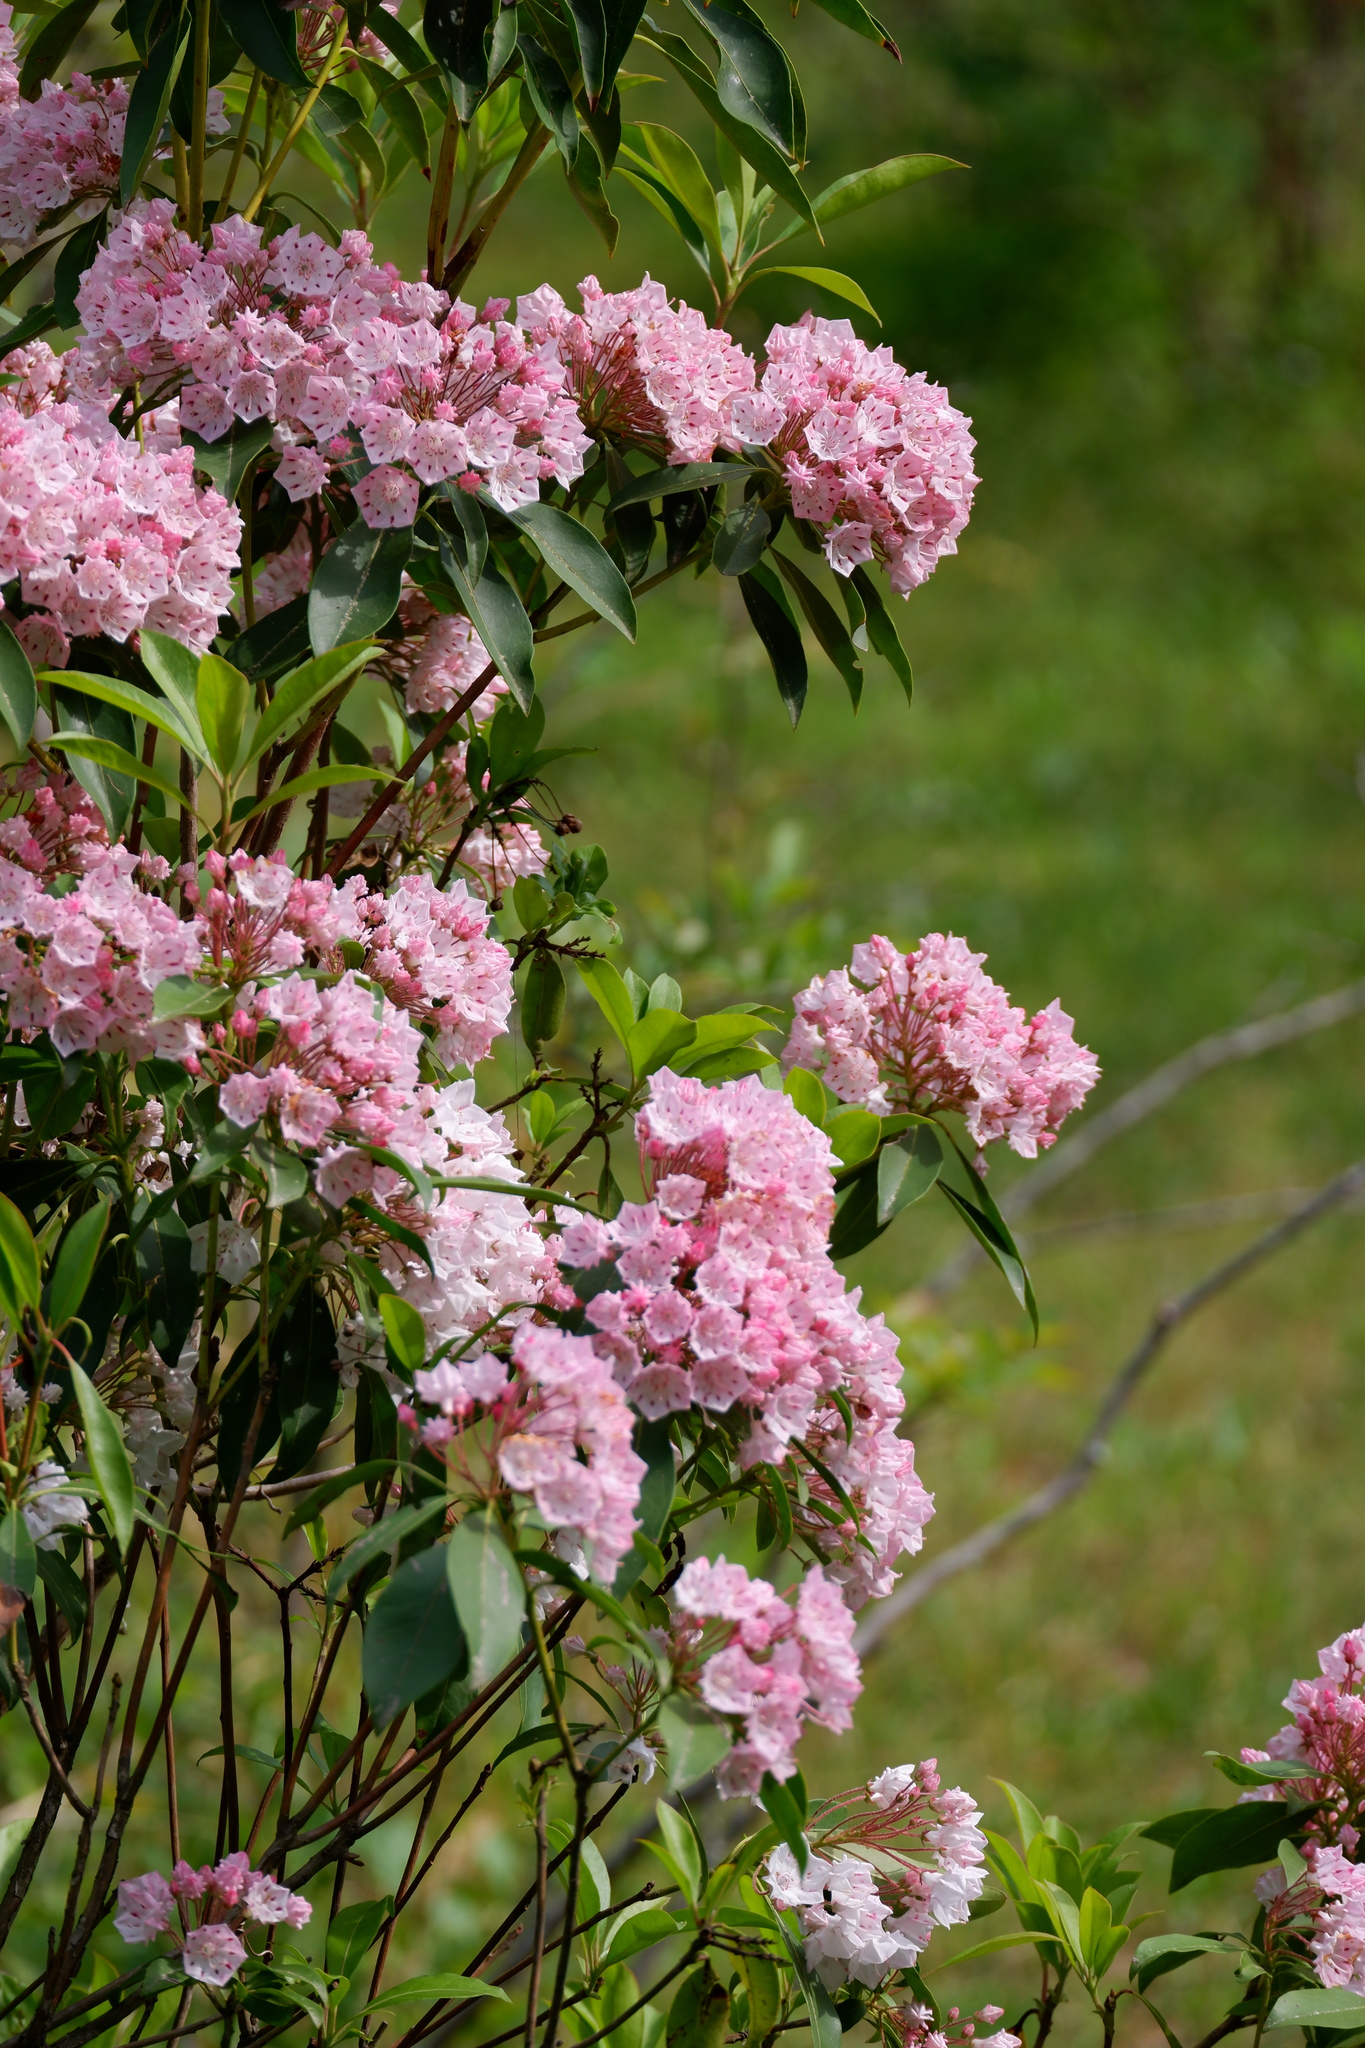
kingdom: Plantae
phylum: Tracheophyta
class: Magnoliopsida
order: Ericales
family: Ericaceae
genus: Kalmia
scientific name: Kalmia latifolia
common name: Mountain-laurel
